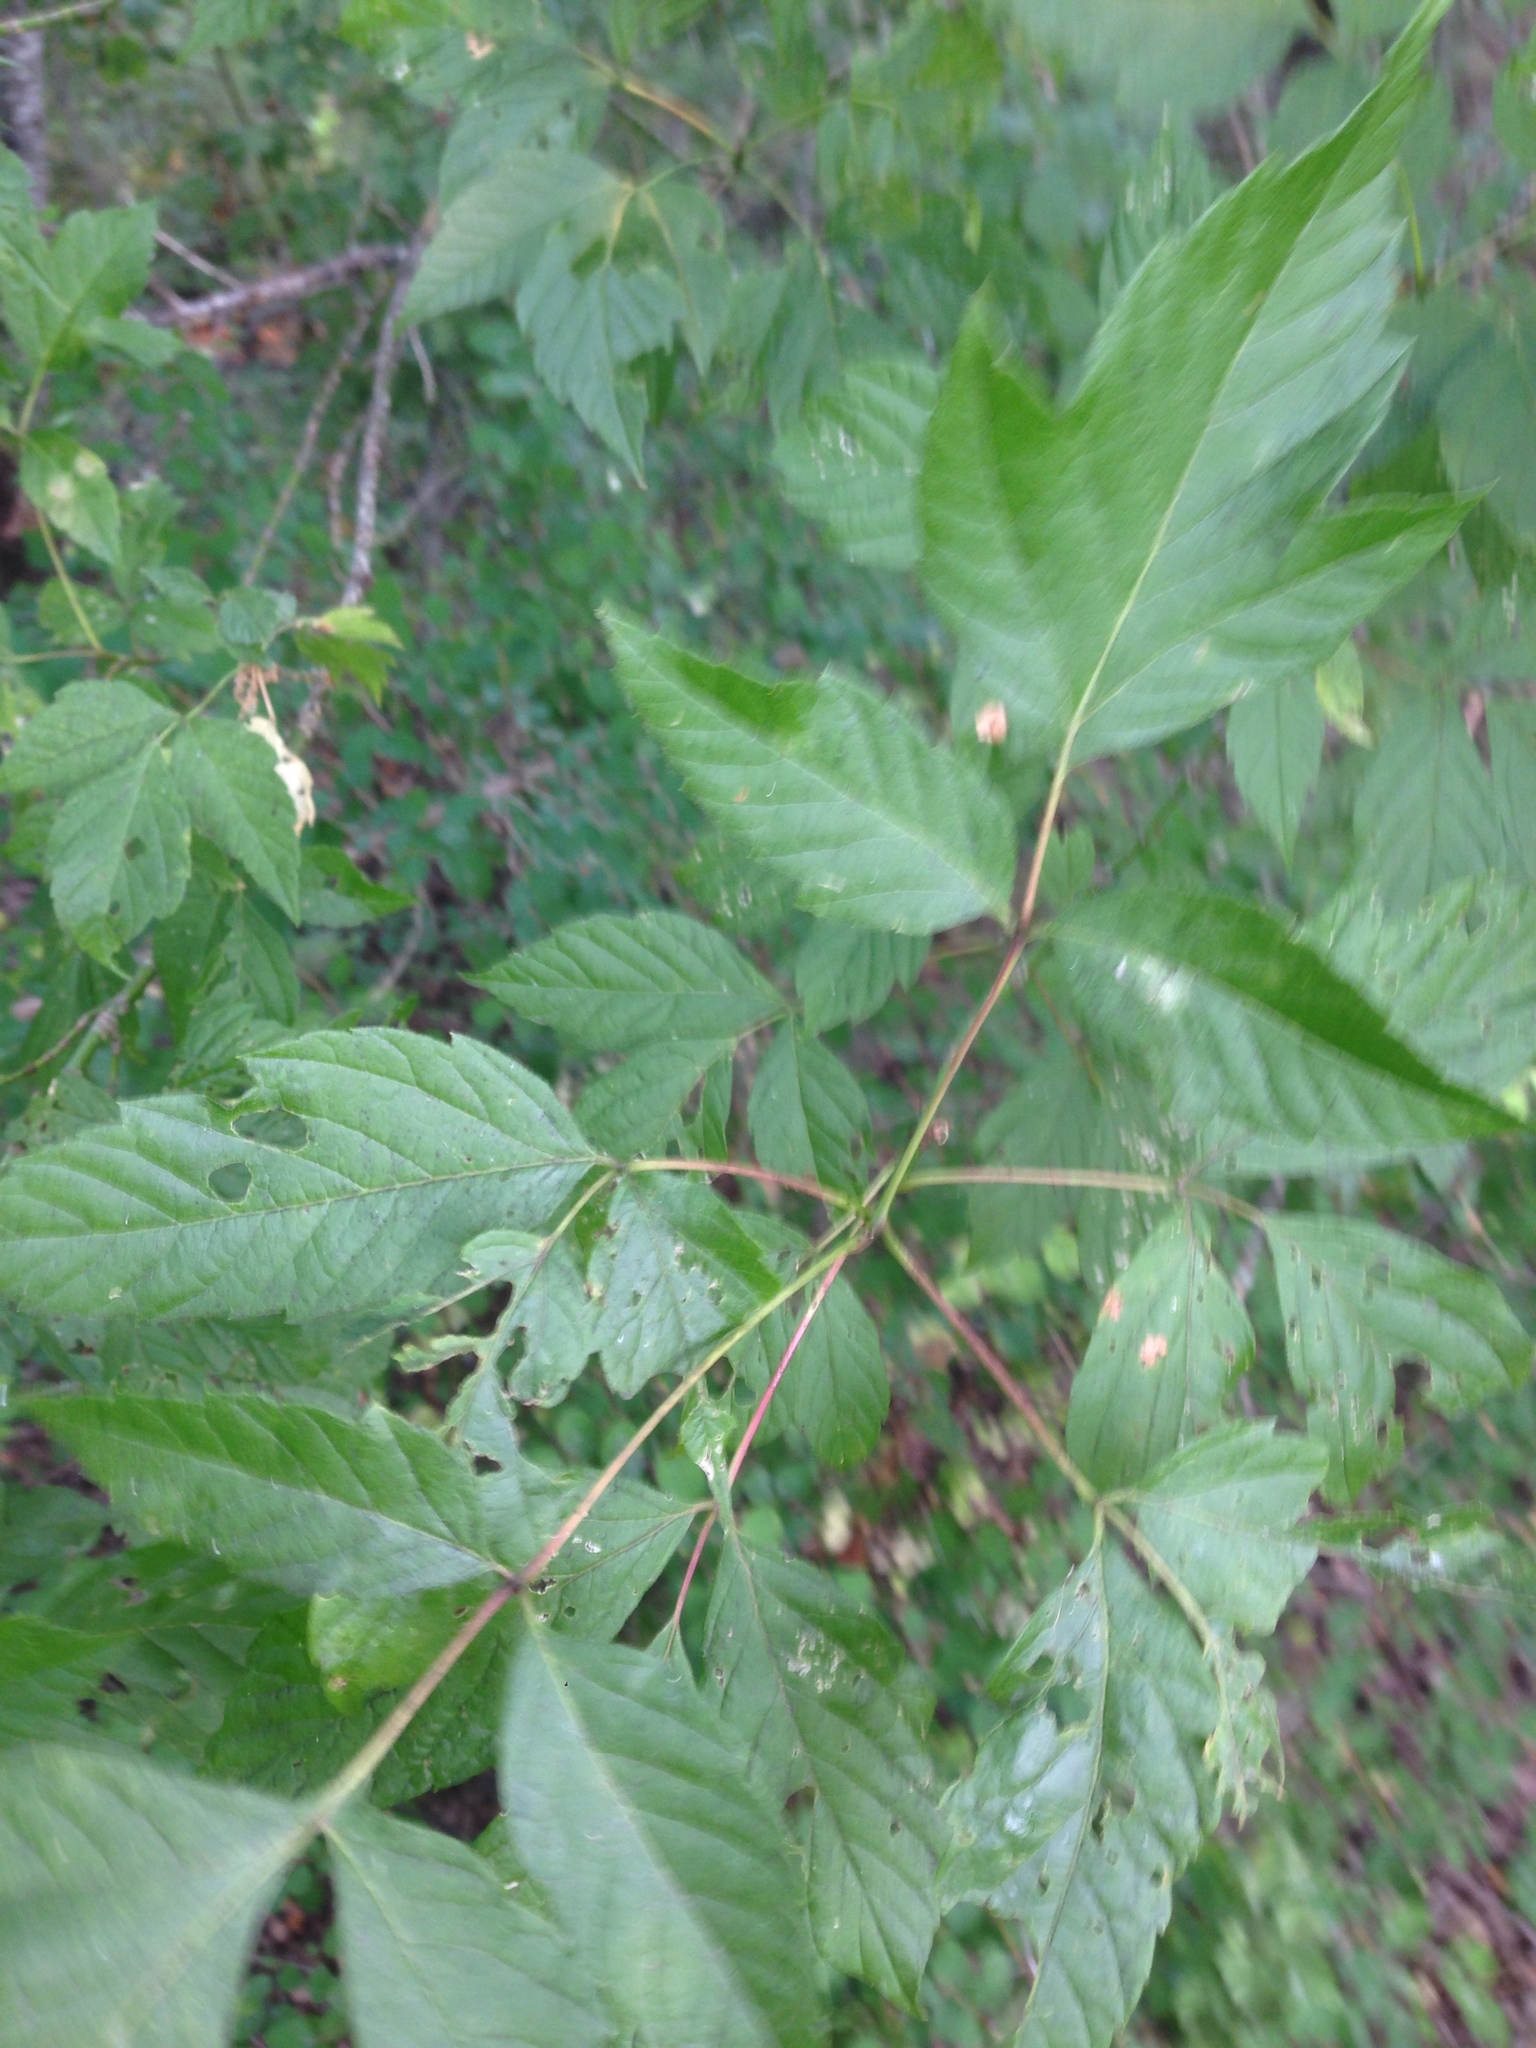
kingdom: Plantae
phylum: Tracheophyta
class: Magnoliopsida
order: Sapindales
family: Sapindaceae
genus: Acer
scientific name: Acer negundo
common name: Ashleaf maple
